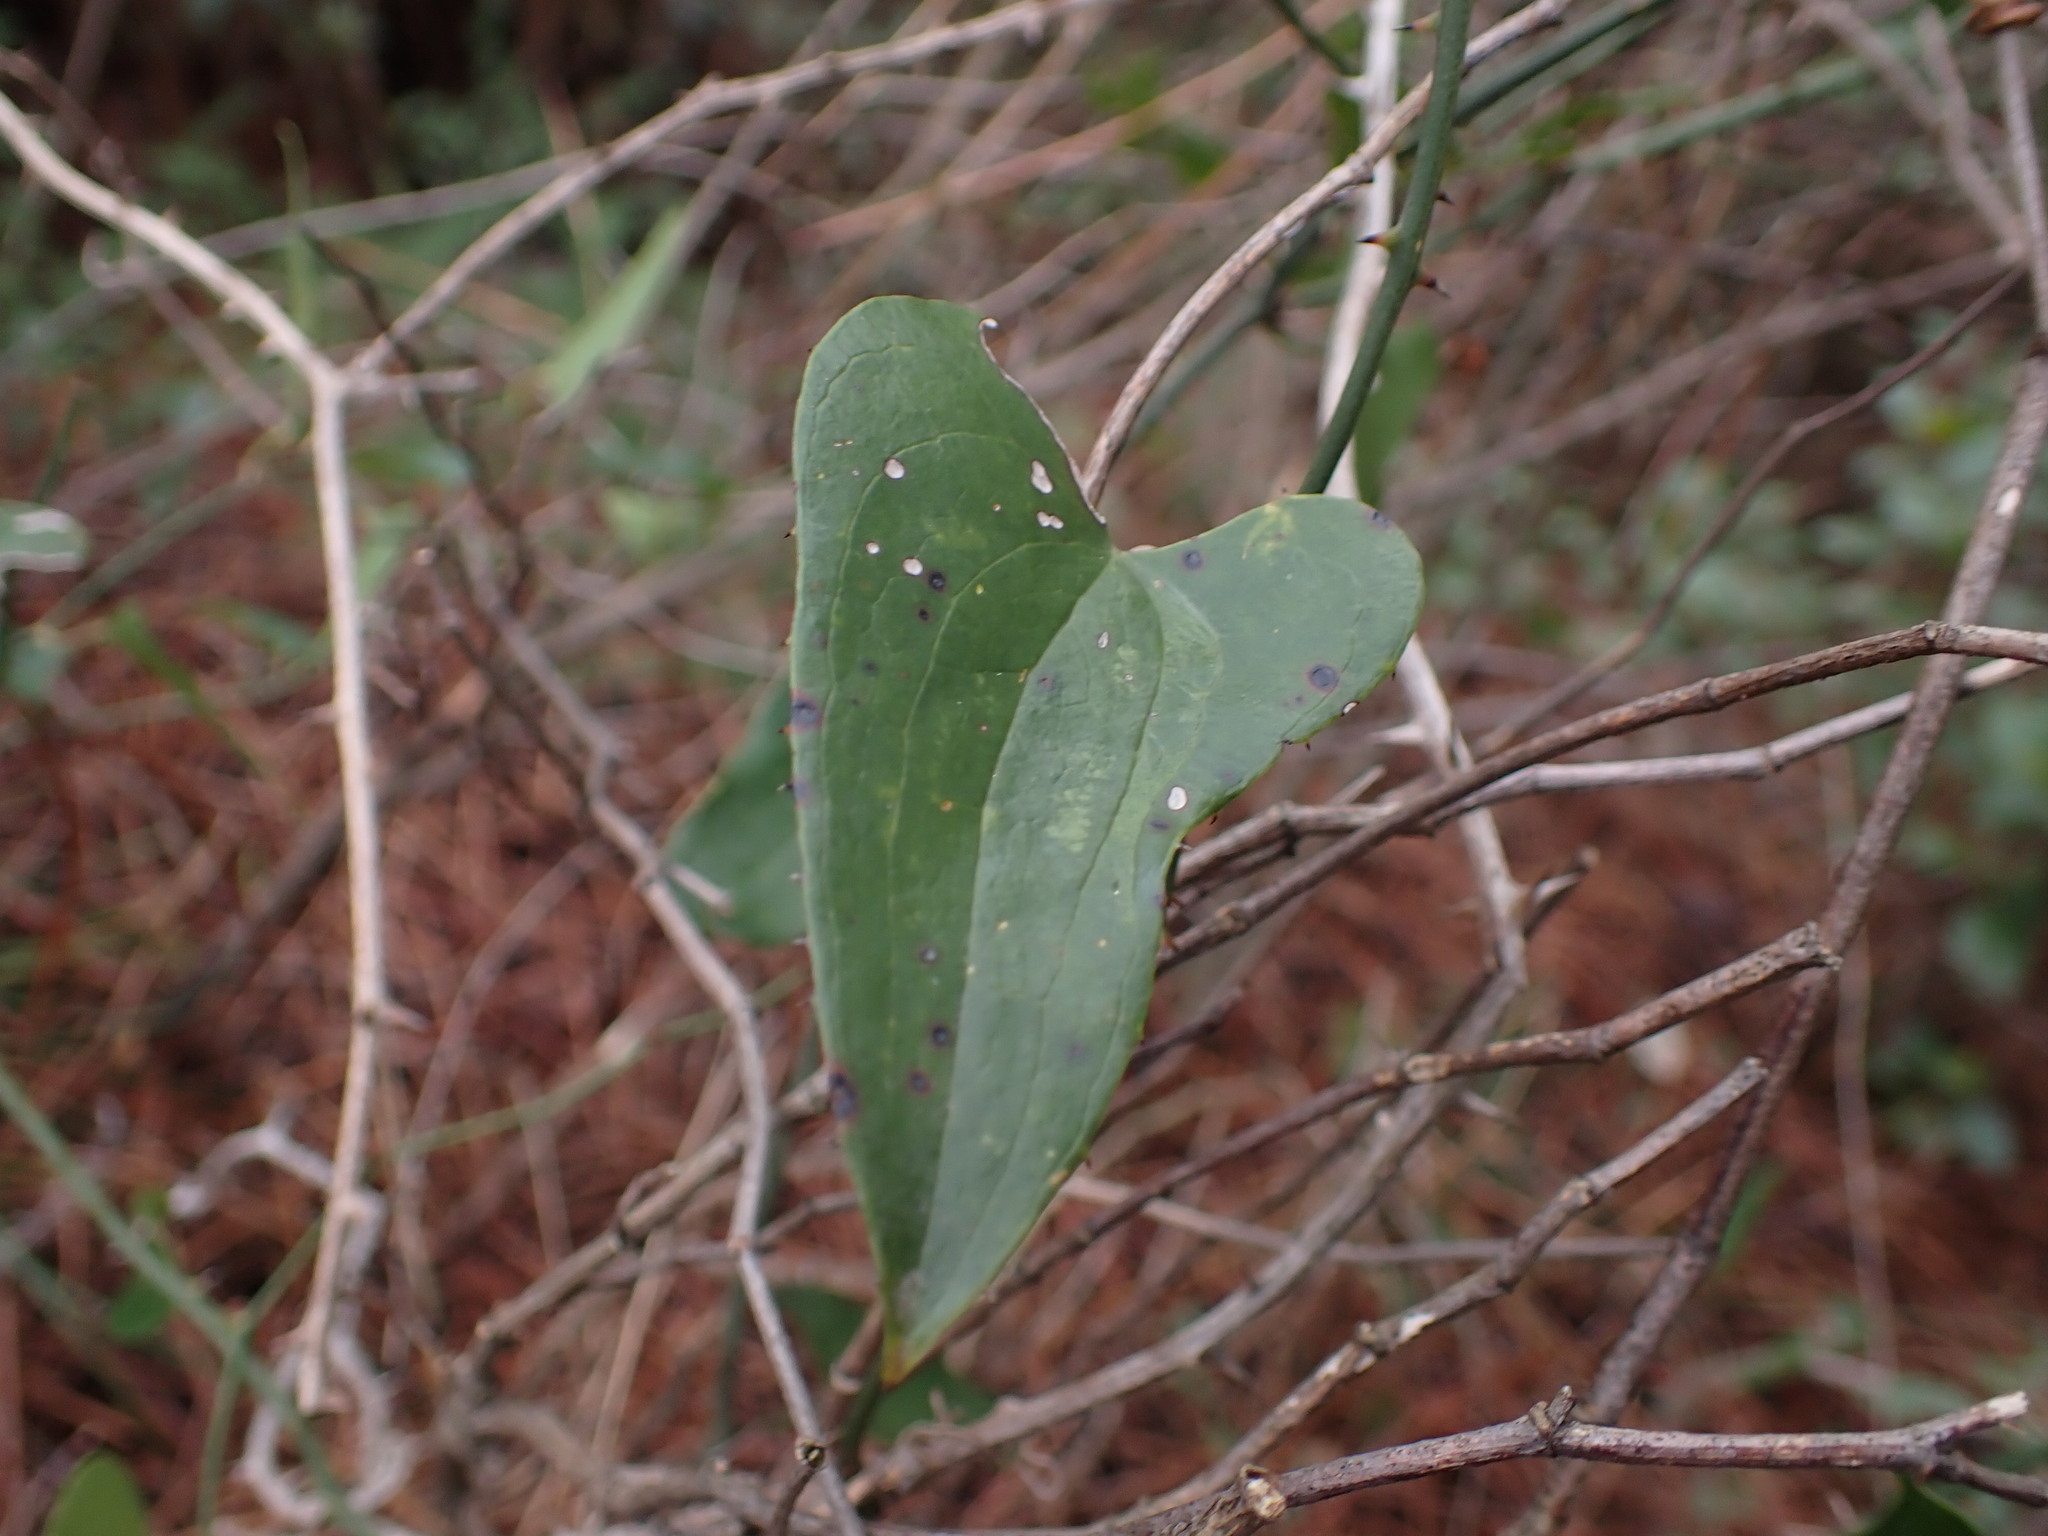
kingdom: Plantae
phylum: Tracheophyta
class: Liliopsida
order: Liliales
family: Smilacaceae
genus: Smilax
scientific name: Smilax aspera
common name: Common smilax
